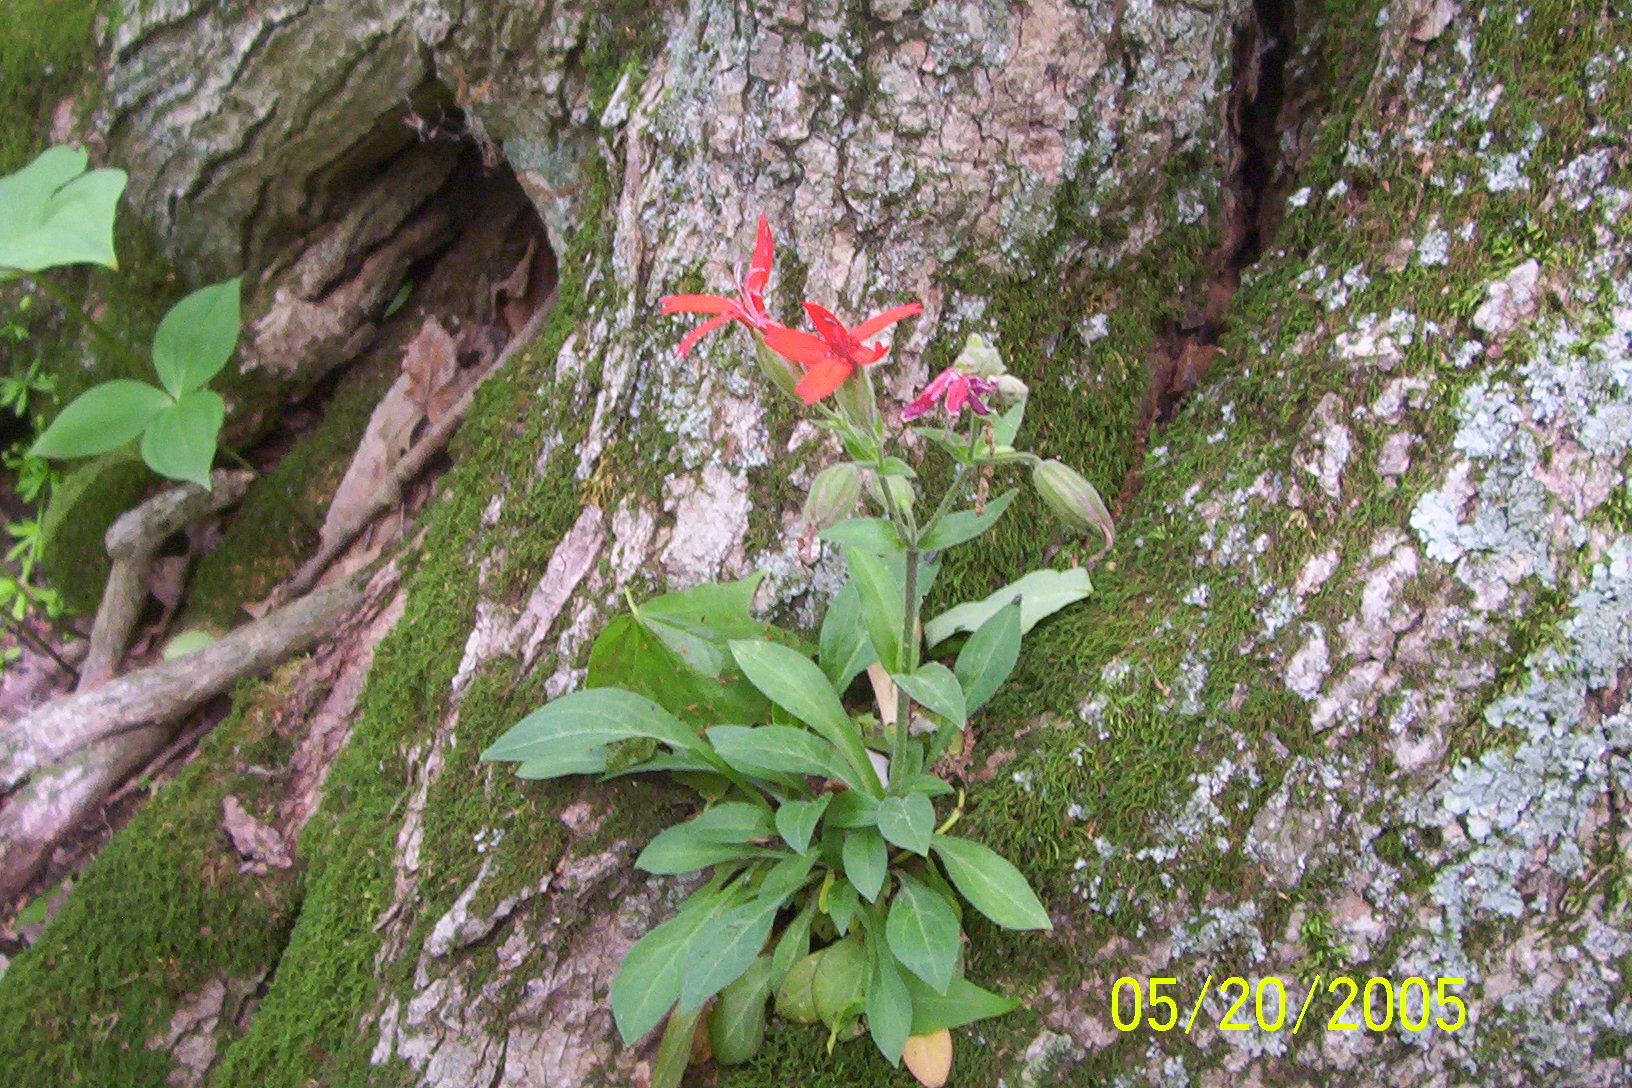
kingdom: Plantae
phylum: Tracheophyta
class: Magnoliopsida
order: Caryophyllales
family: Caryophyllaceae
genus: Silene
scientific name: Silene virginica
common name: Fire-pink
